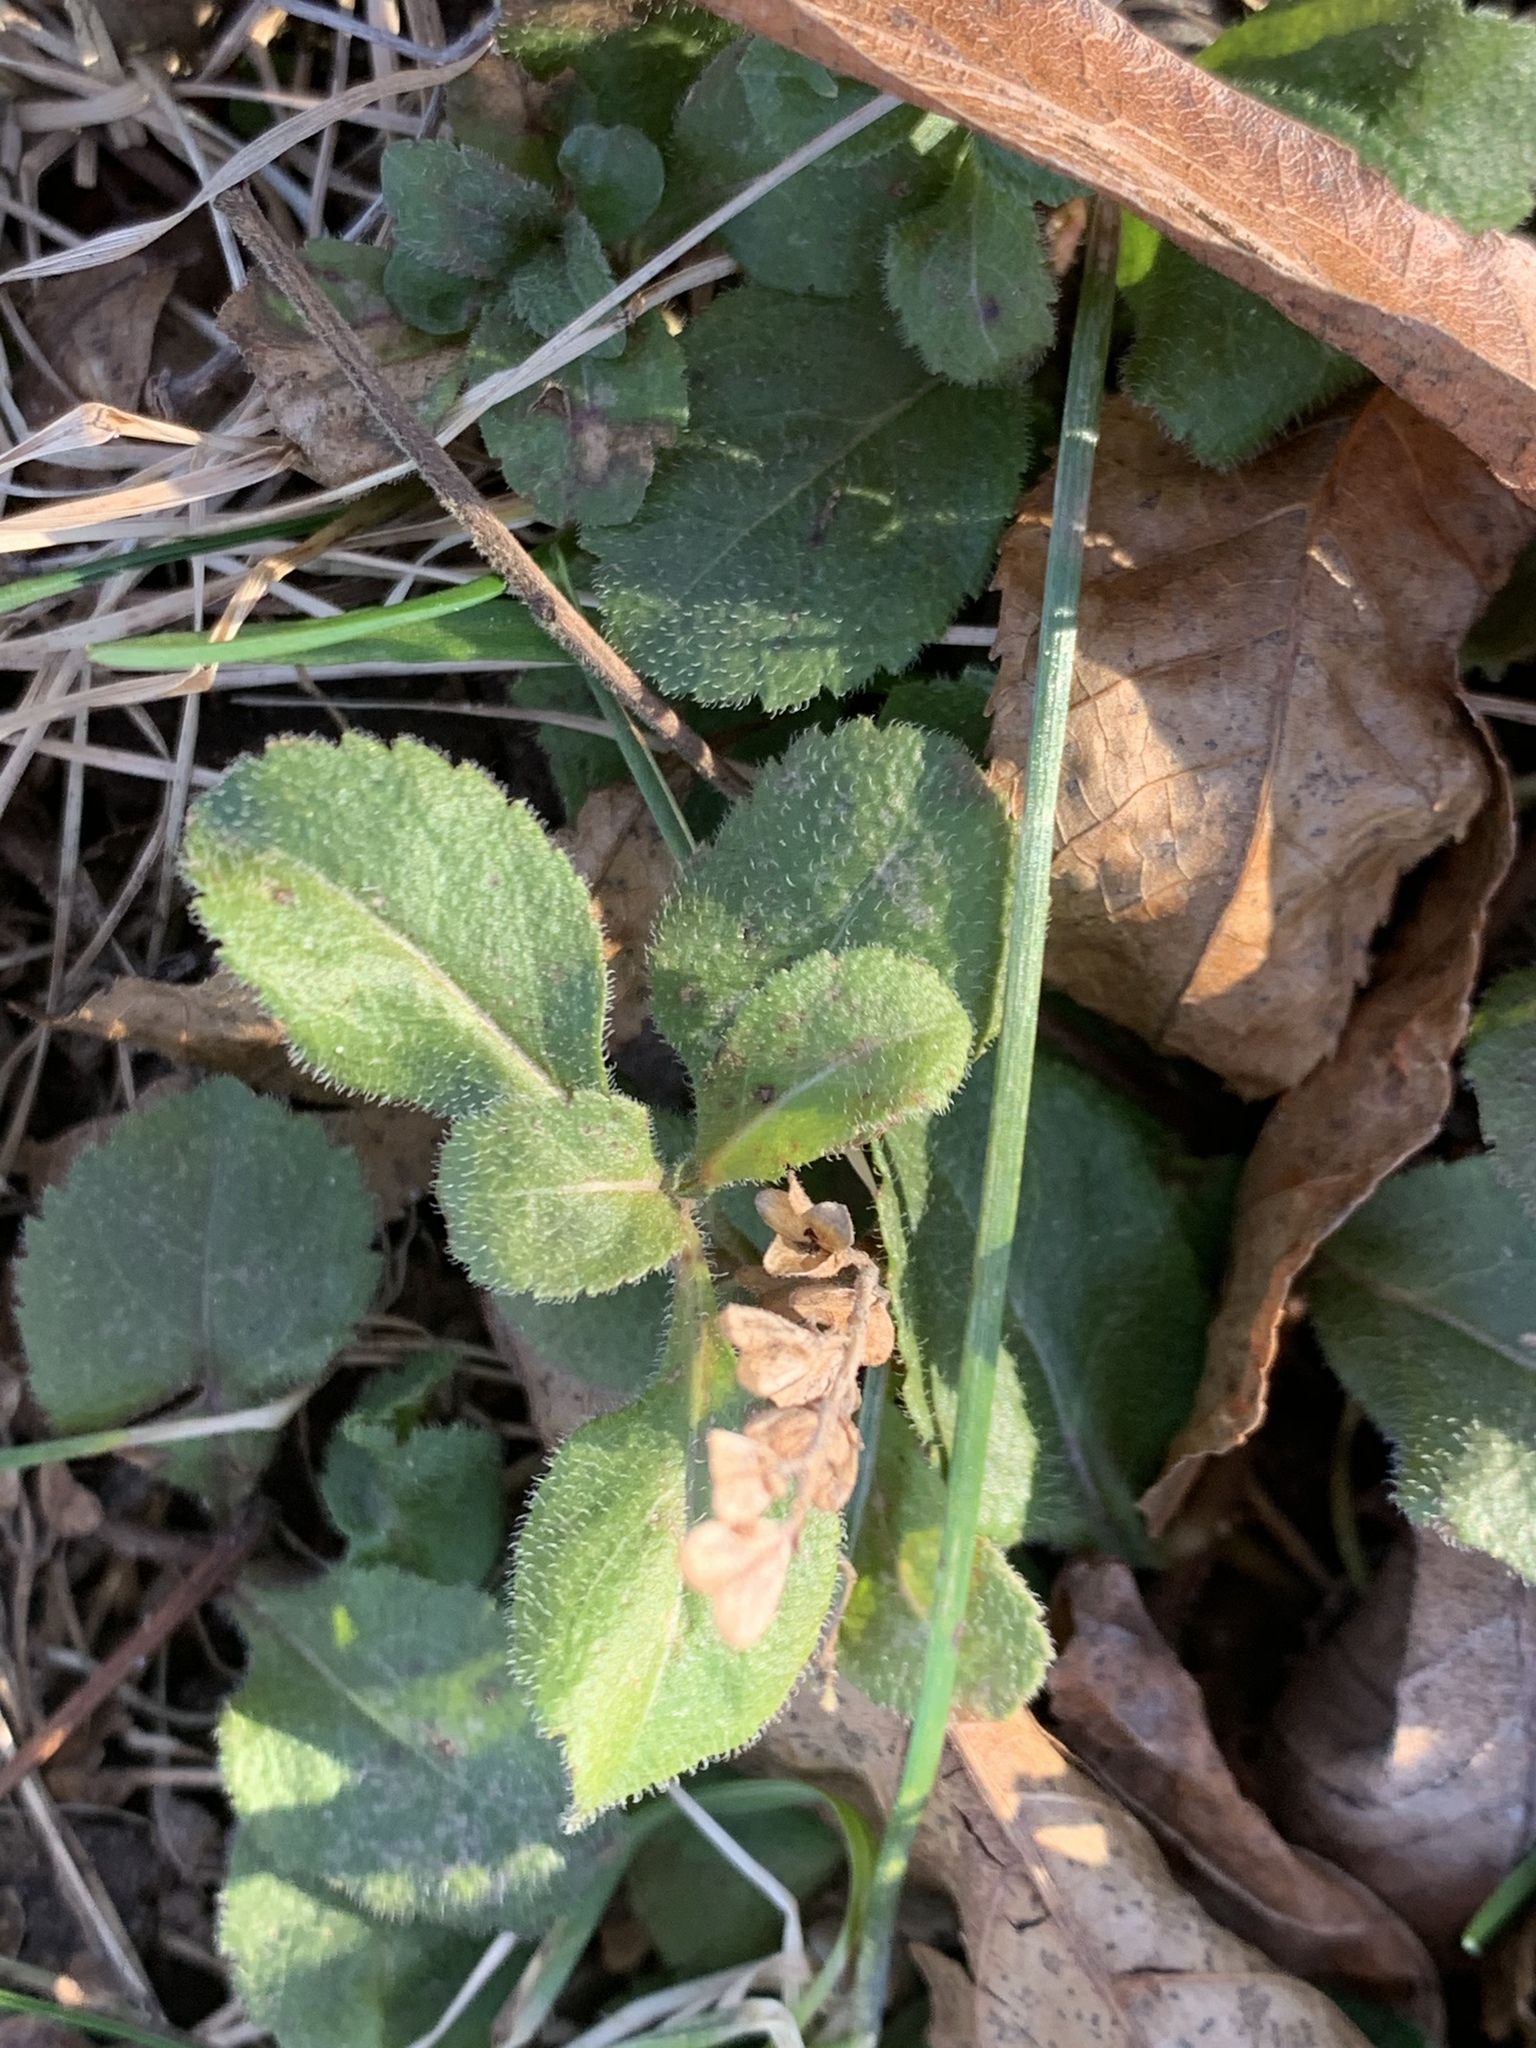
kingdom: Plantae
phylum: Tracheophyta
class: Magnoliopsida
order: Lamiales
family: Plantaginaceae
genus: Veronica
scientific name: Veronica officinalis
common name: Common speedwell
